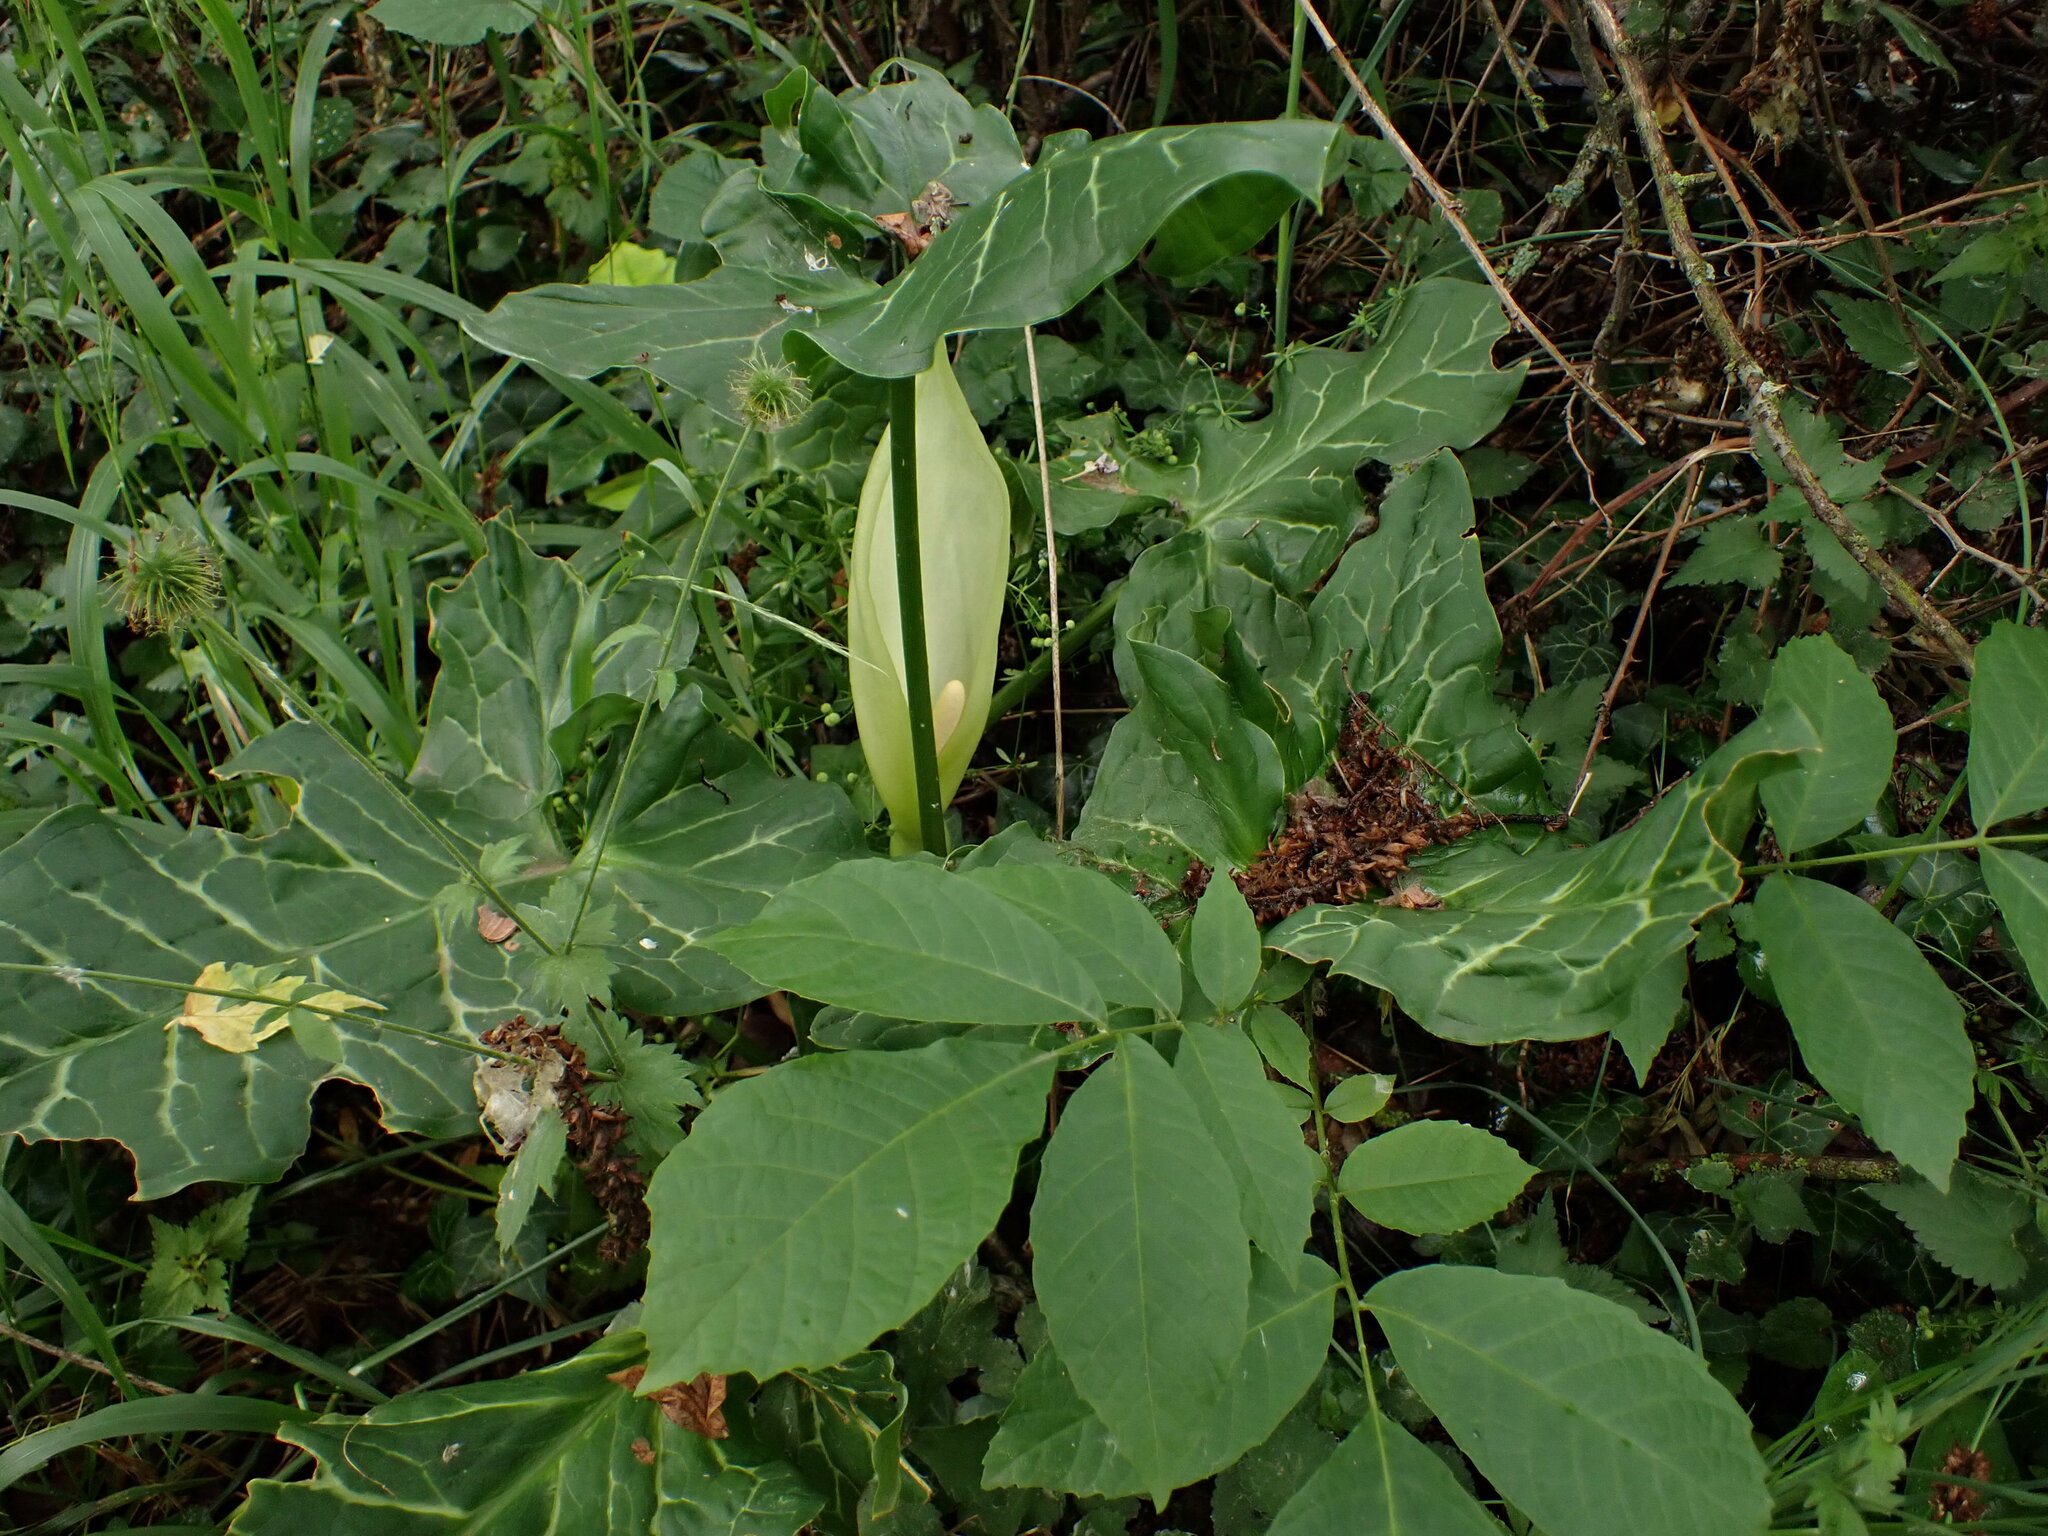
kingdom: Plantae
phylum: Tracheophyta
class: Liliopsida
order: Alismatales
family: Araceae
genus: Arum
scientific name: Arum italicum
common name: Italian lords-and-ladies
